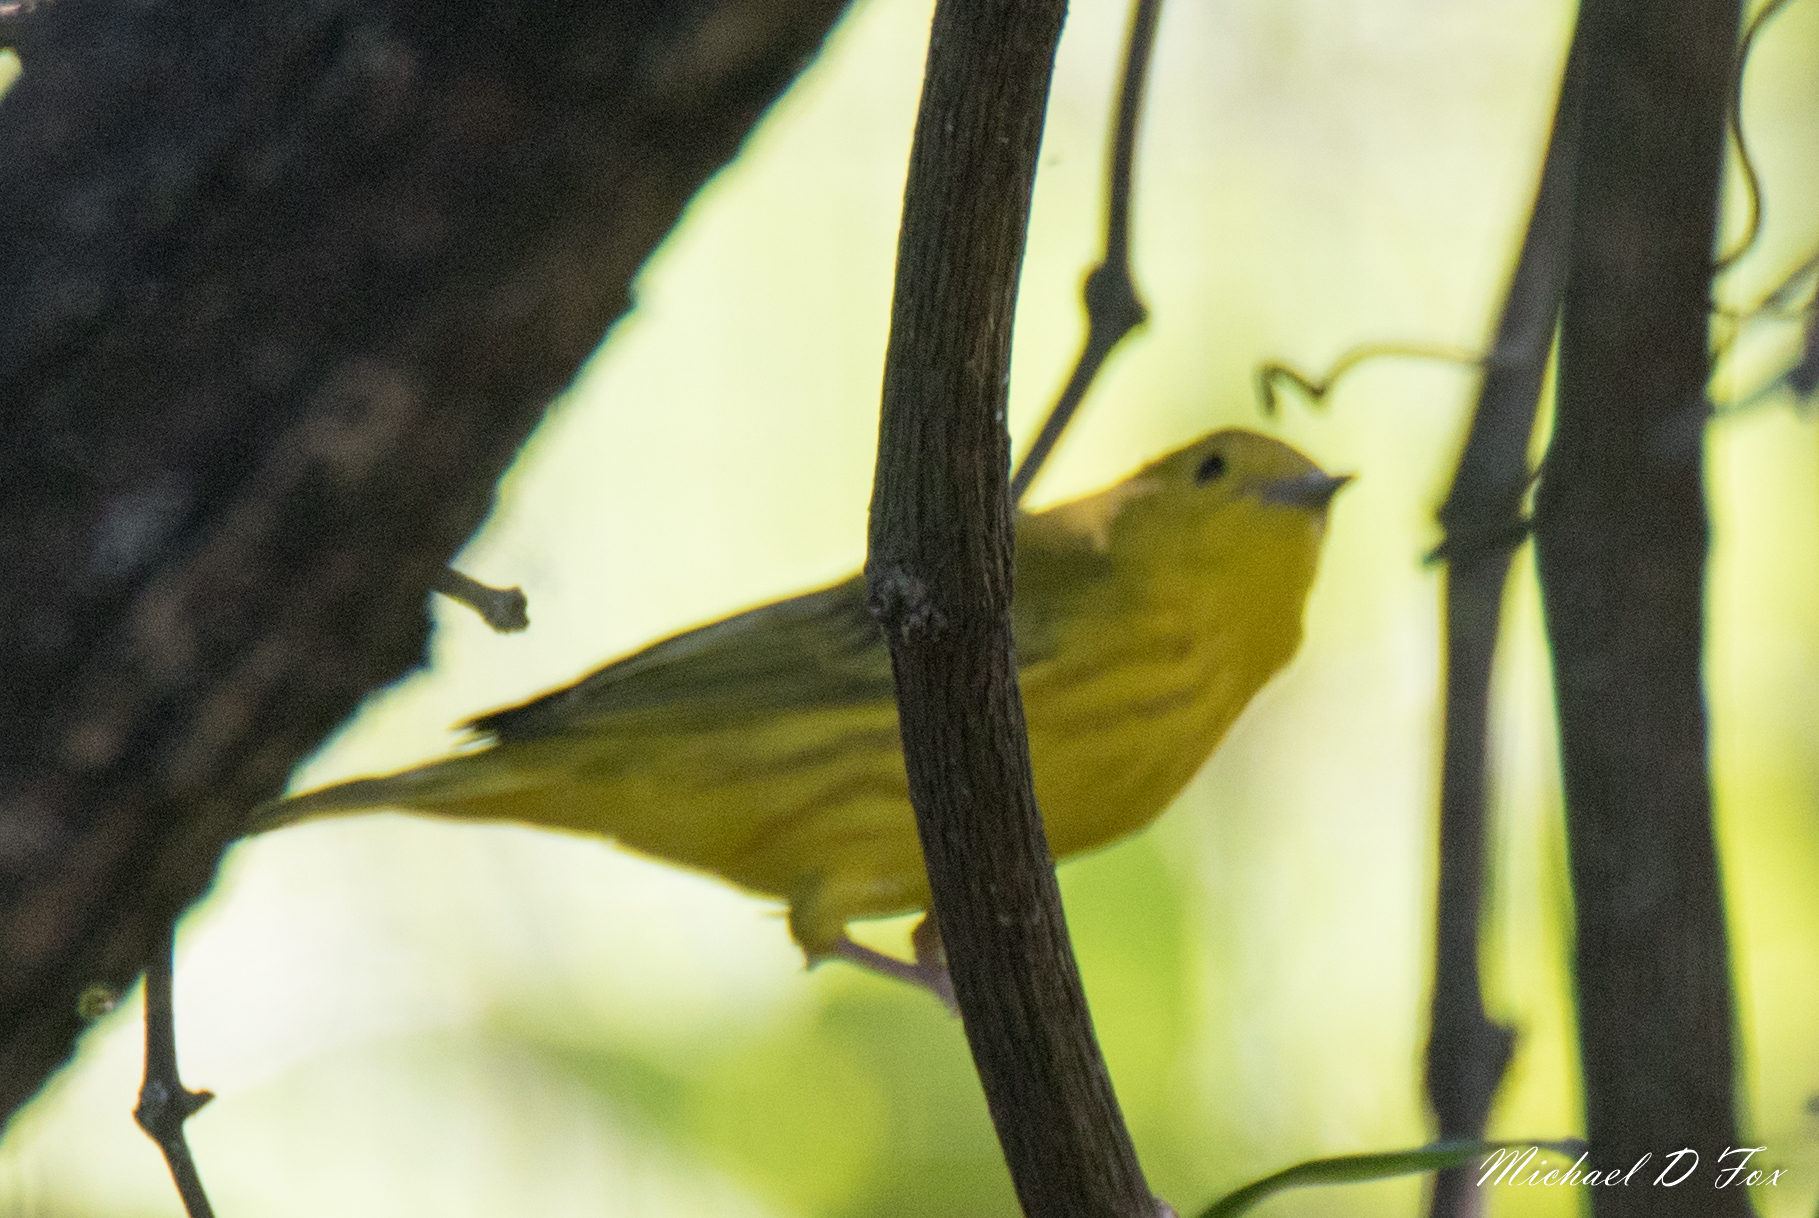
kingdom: Animalia
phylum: Chordata
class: Aves
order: Passeriformes
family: Parulidae
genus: Setophaga
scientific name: Setophaga petechia
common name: Yellow warbler
